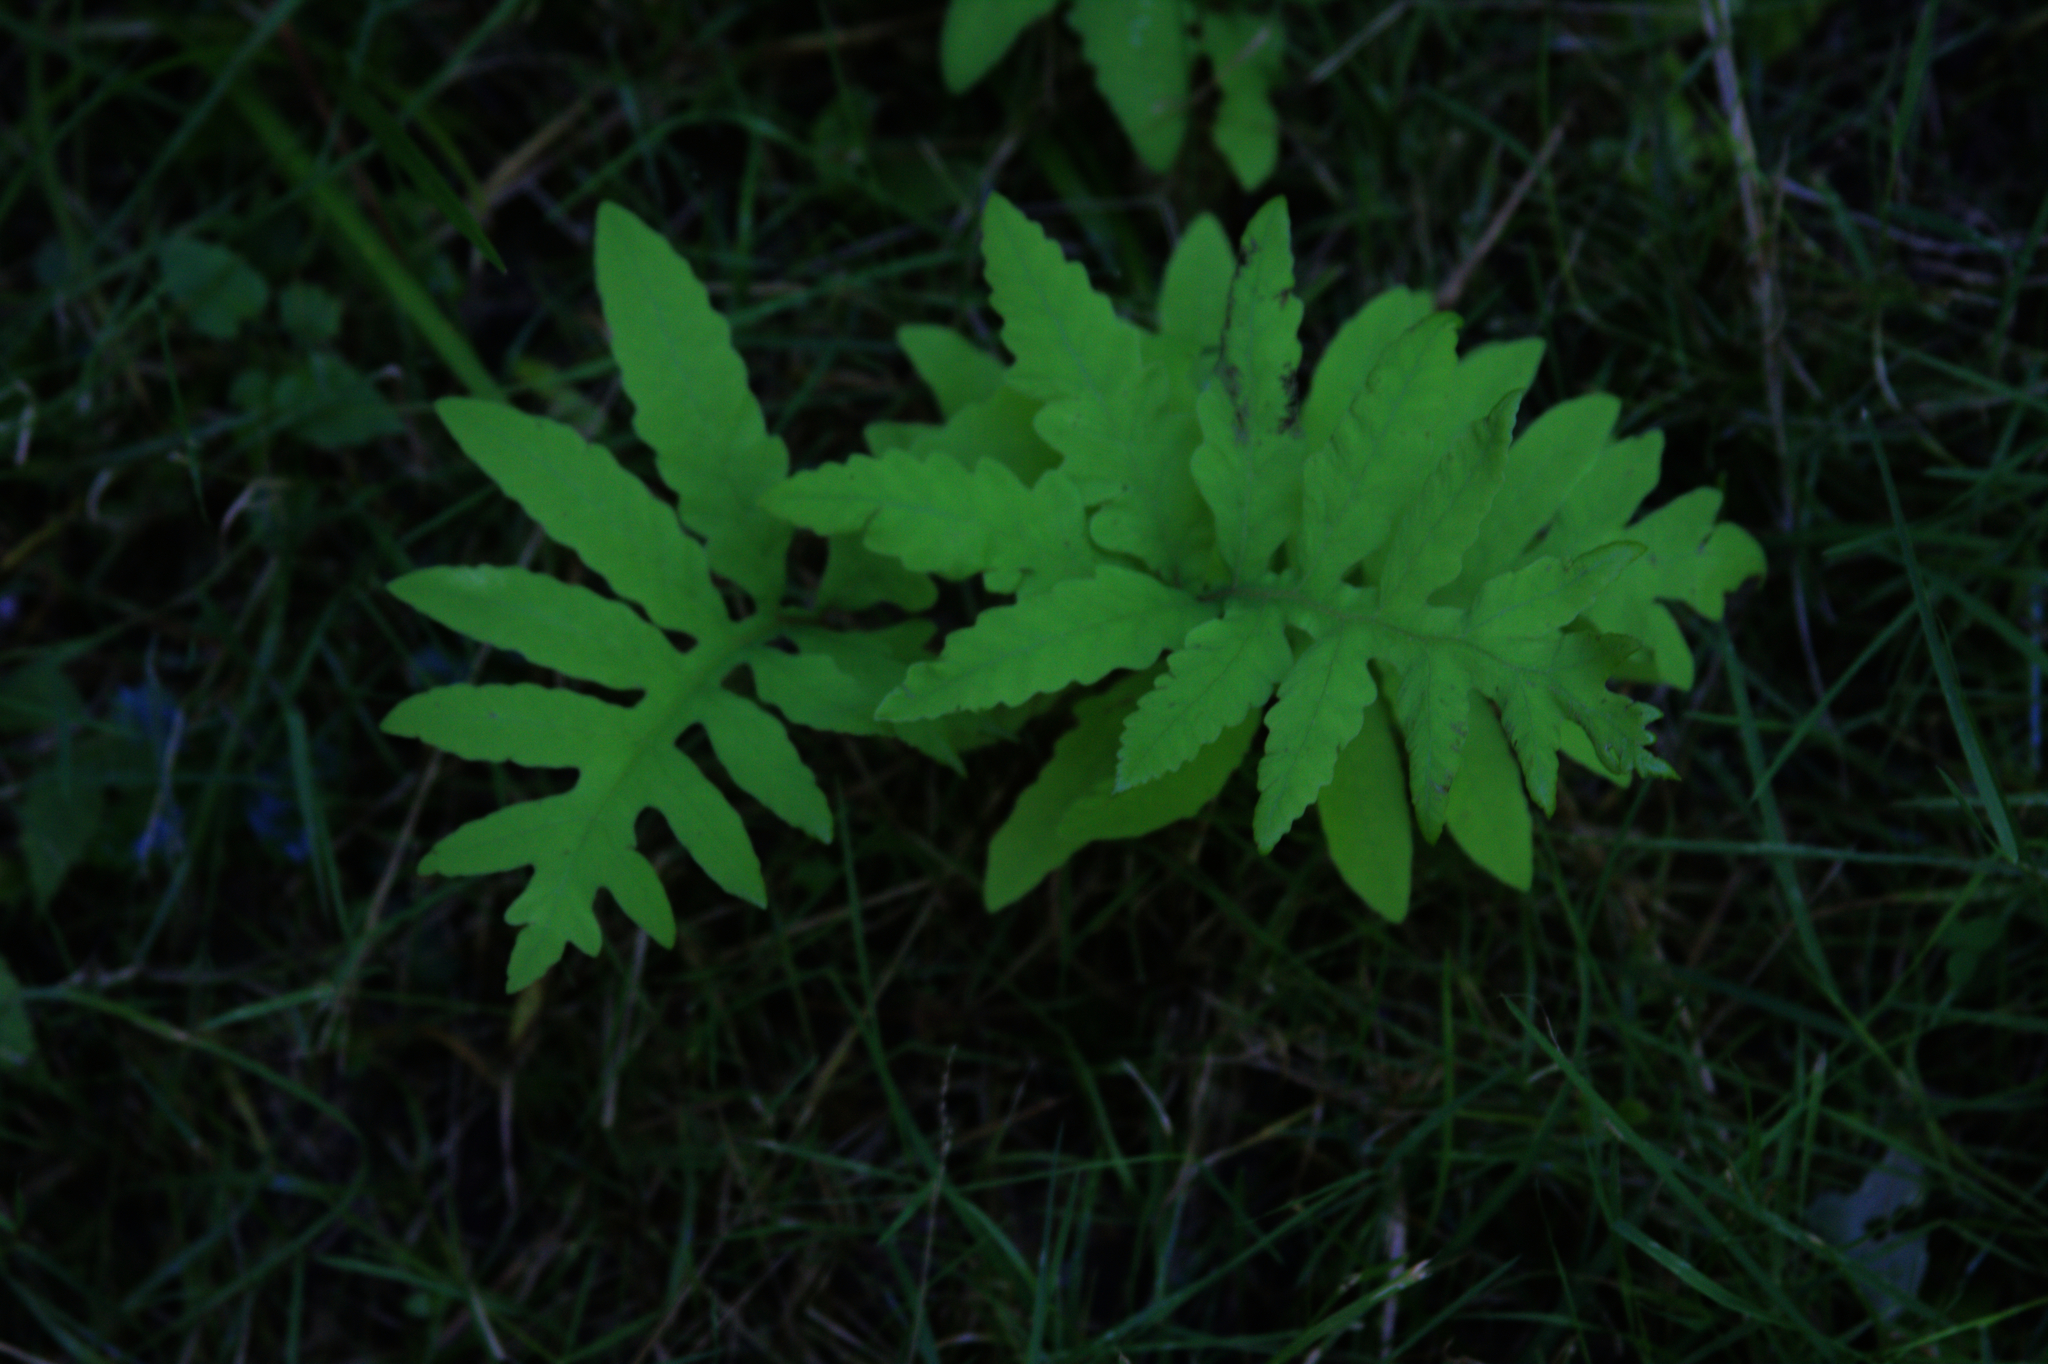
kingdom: Plantae
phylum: Tracheophyta
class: Polypodiopsida
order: Polypodiales
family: Onocleaceae
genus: Onoclea
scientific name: Onoclea sensibilis
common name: Sensitive fern
